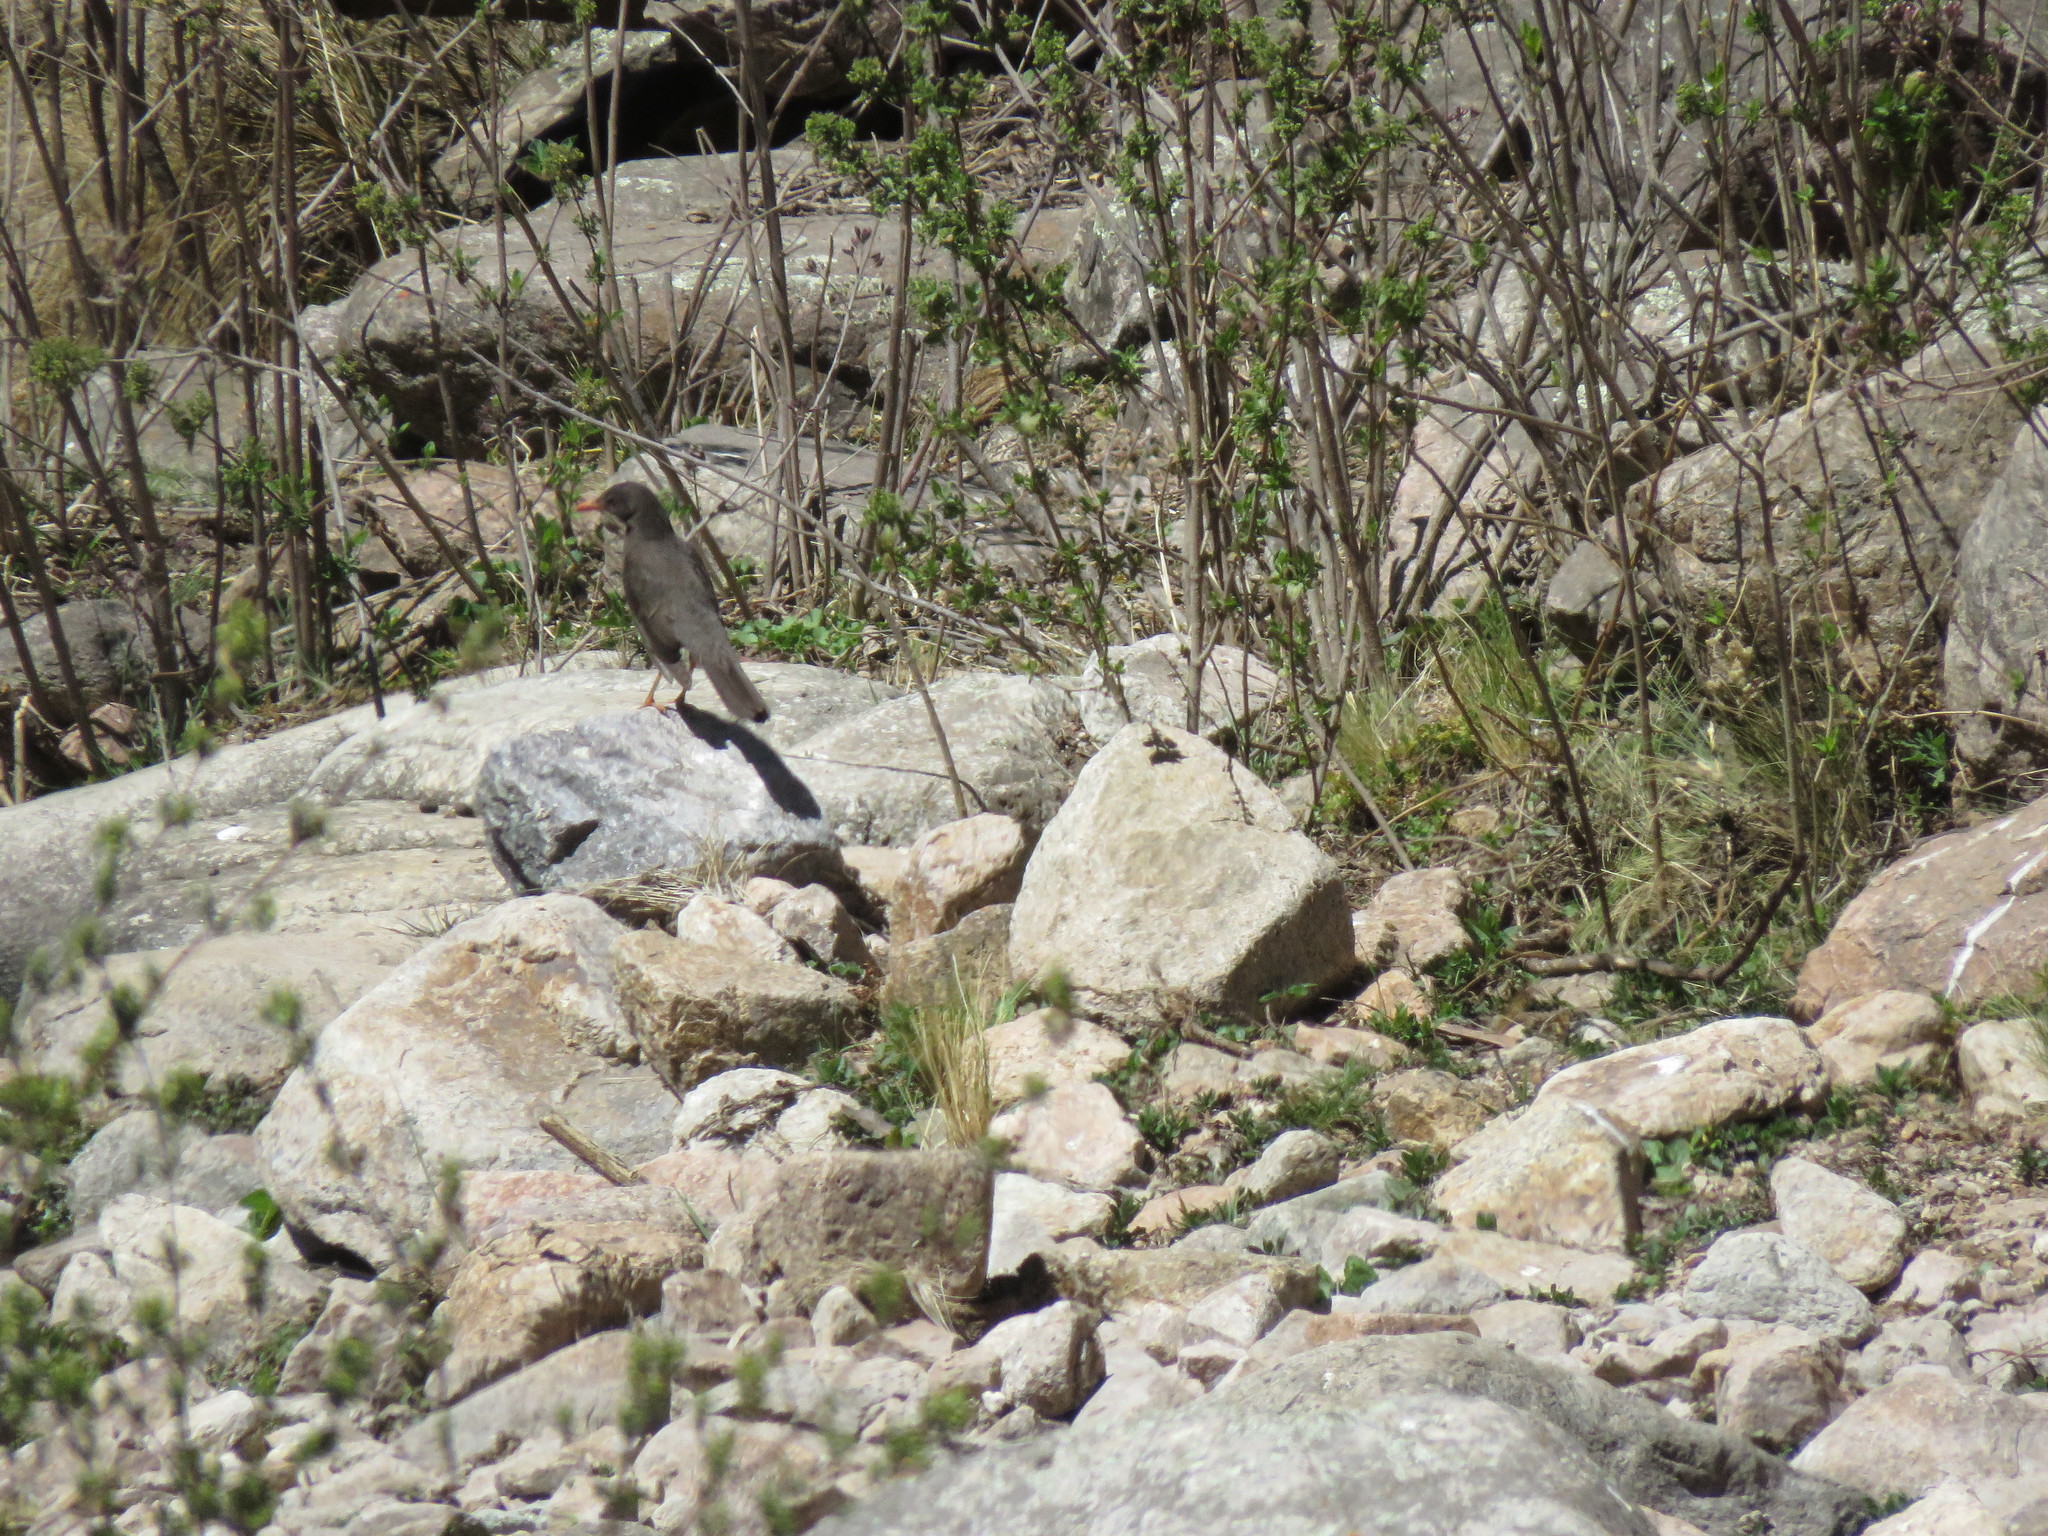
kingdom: Animalia
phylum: Chordata
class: Aves
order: Passeriformes
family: Turdidae
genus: Turdus
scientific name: Turdus chiguanco
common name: Chiguanco thrush
